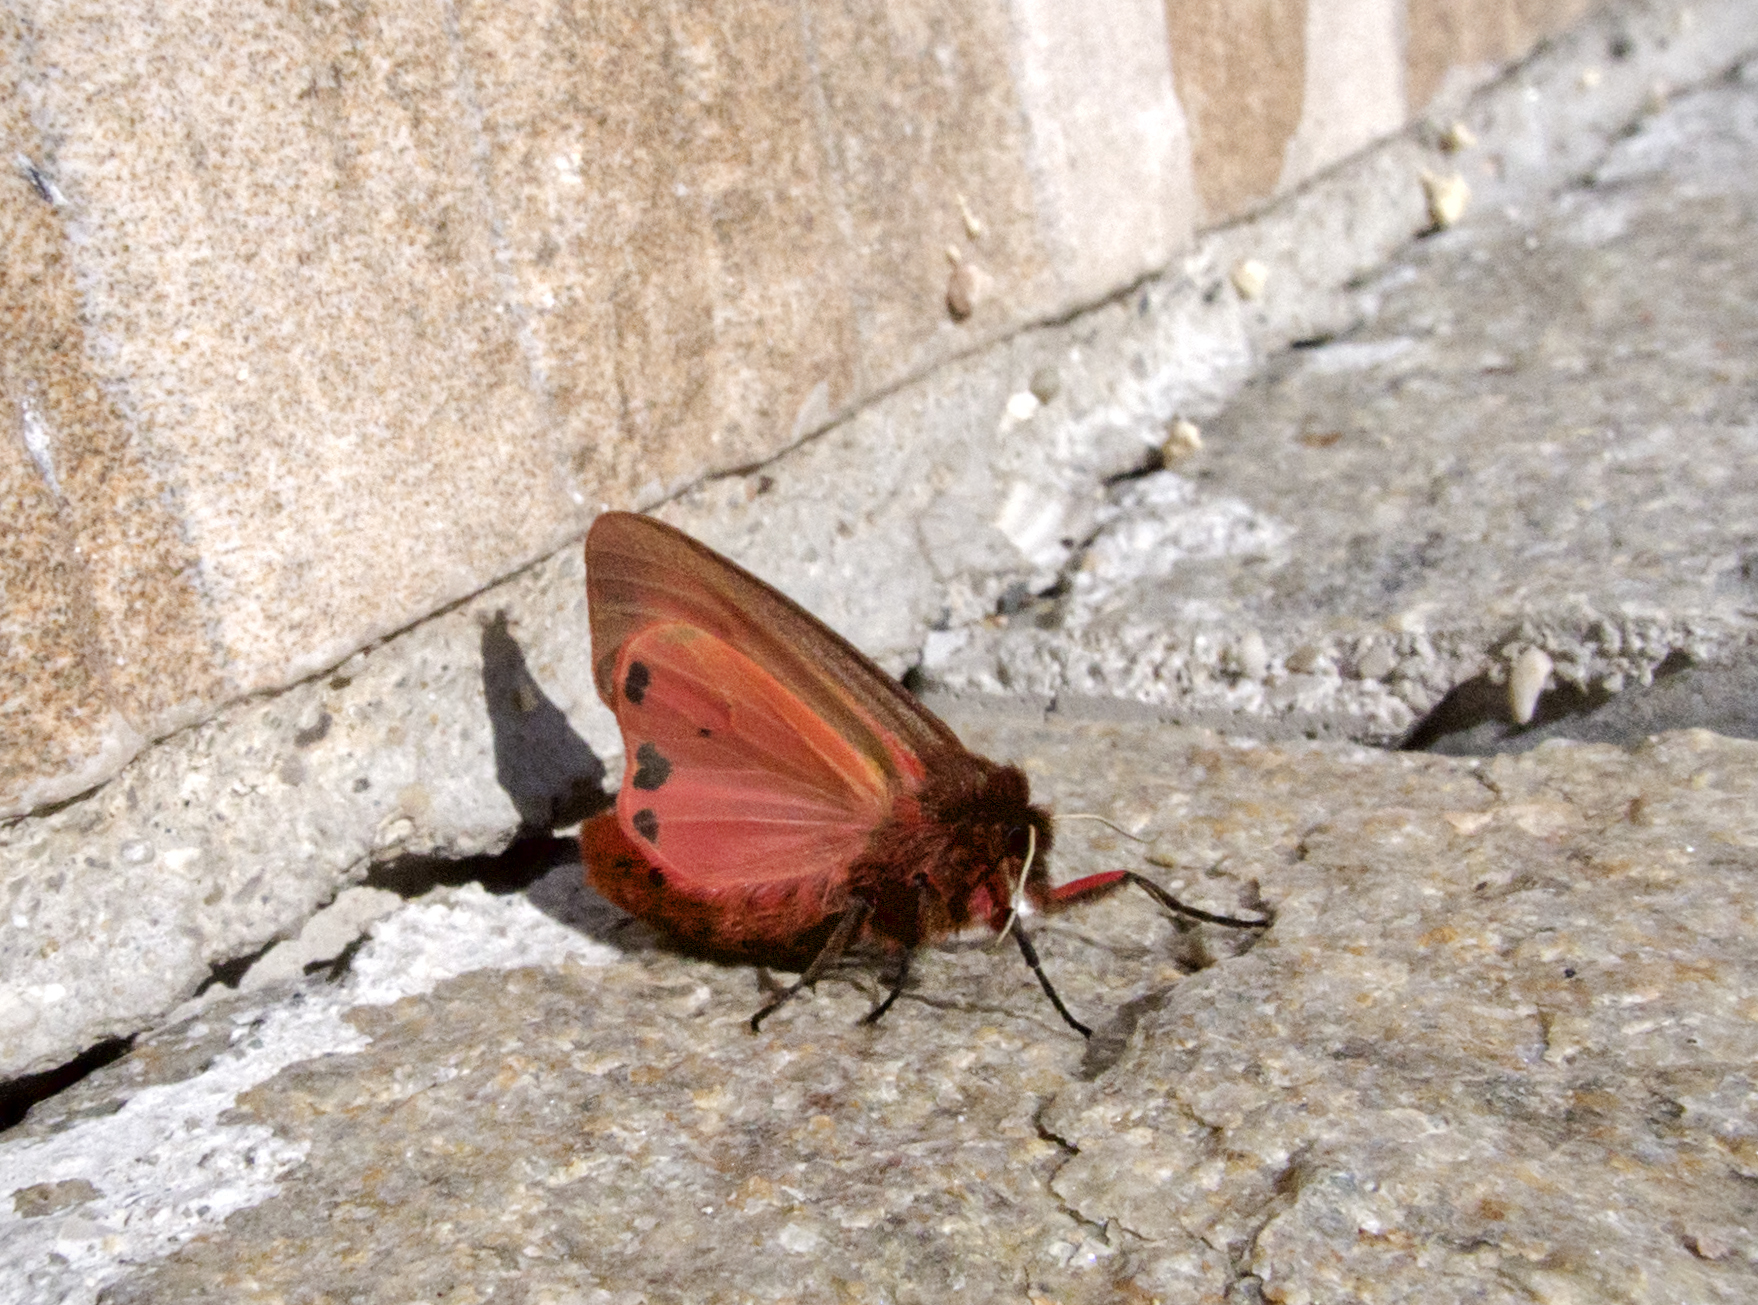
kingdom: Animalia
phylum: Arthropoda
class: Insecta
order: Lepidoptera
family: Erebidae
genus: Phragmatobia
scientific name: Phragmatobia fuliginosa
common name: Ruby tiger
